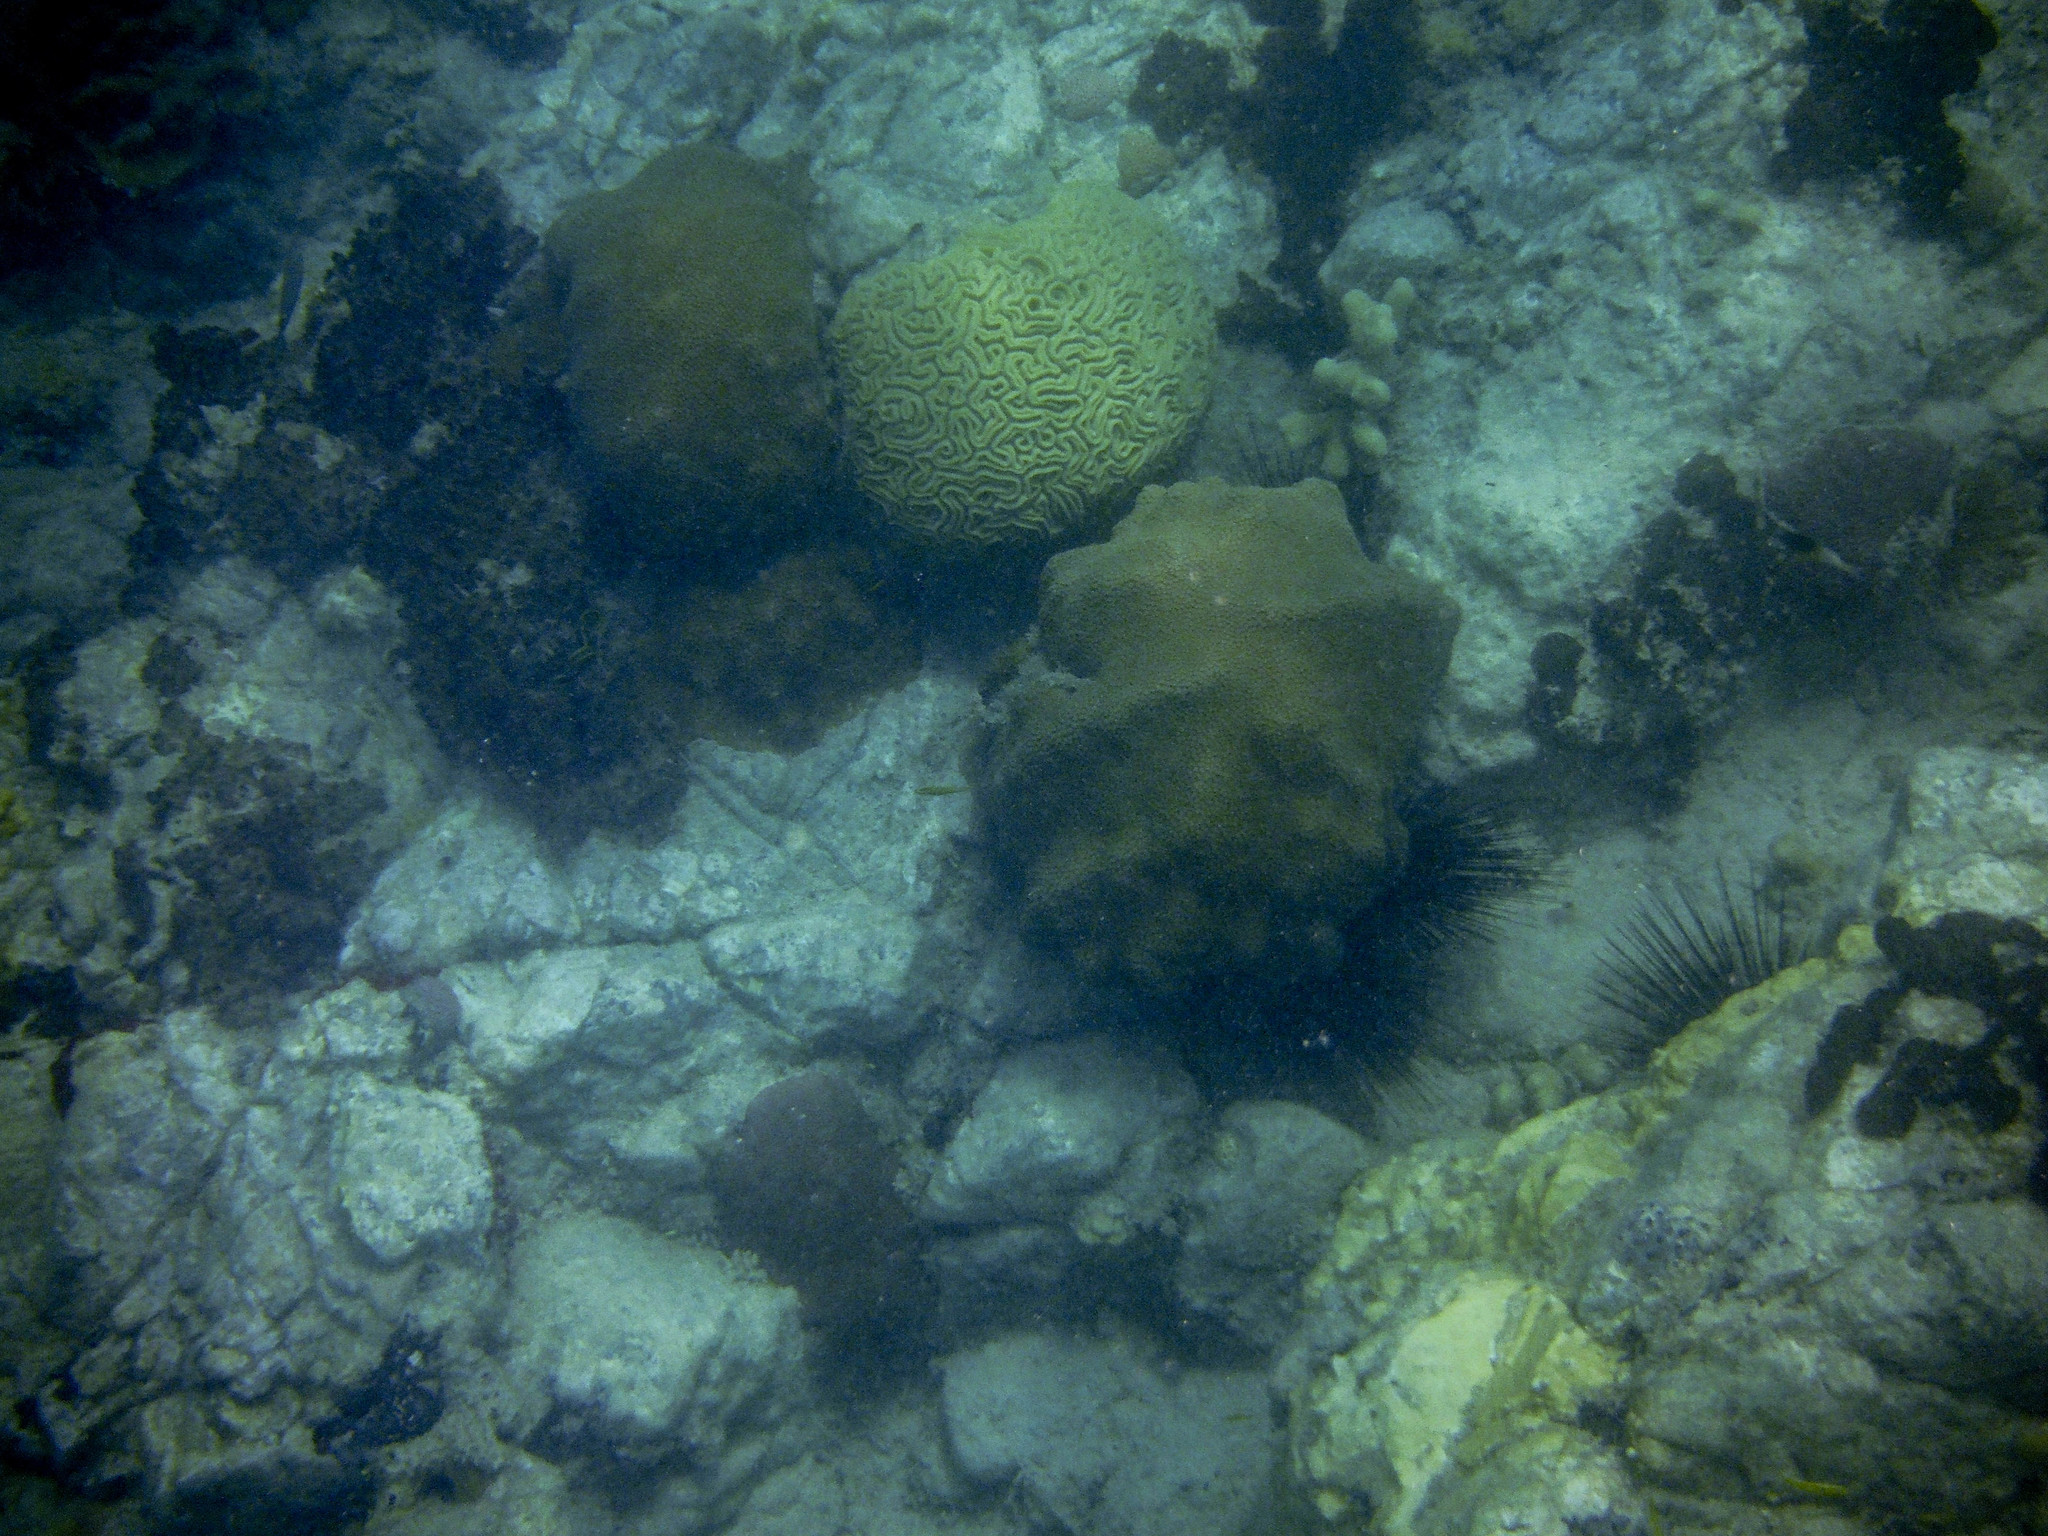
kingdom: Animalia
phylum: Cnidaria
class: Anthozoa
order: Scleractinia
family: Merulinidae
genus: Orbicella
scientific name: Orbicella faveolata
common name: Mountainous star coral
